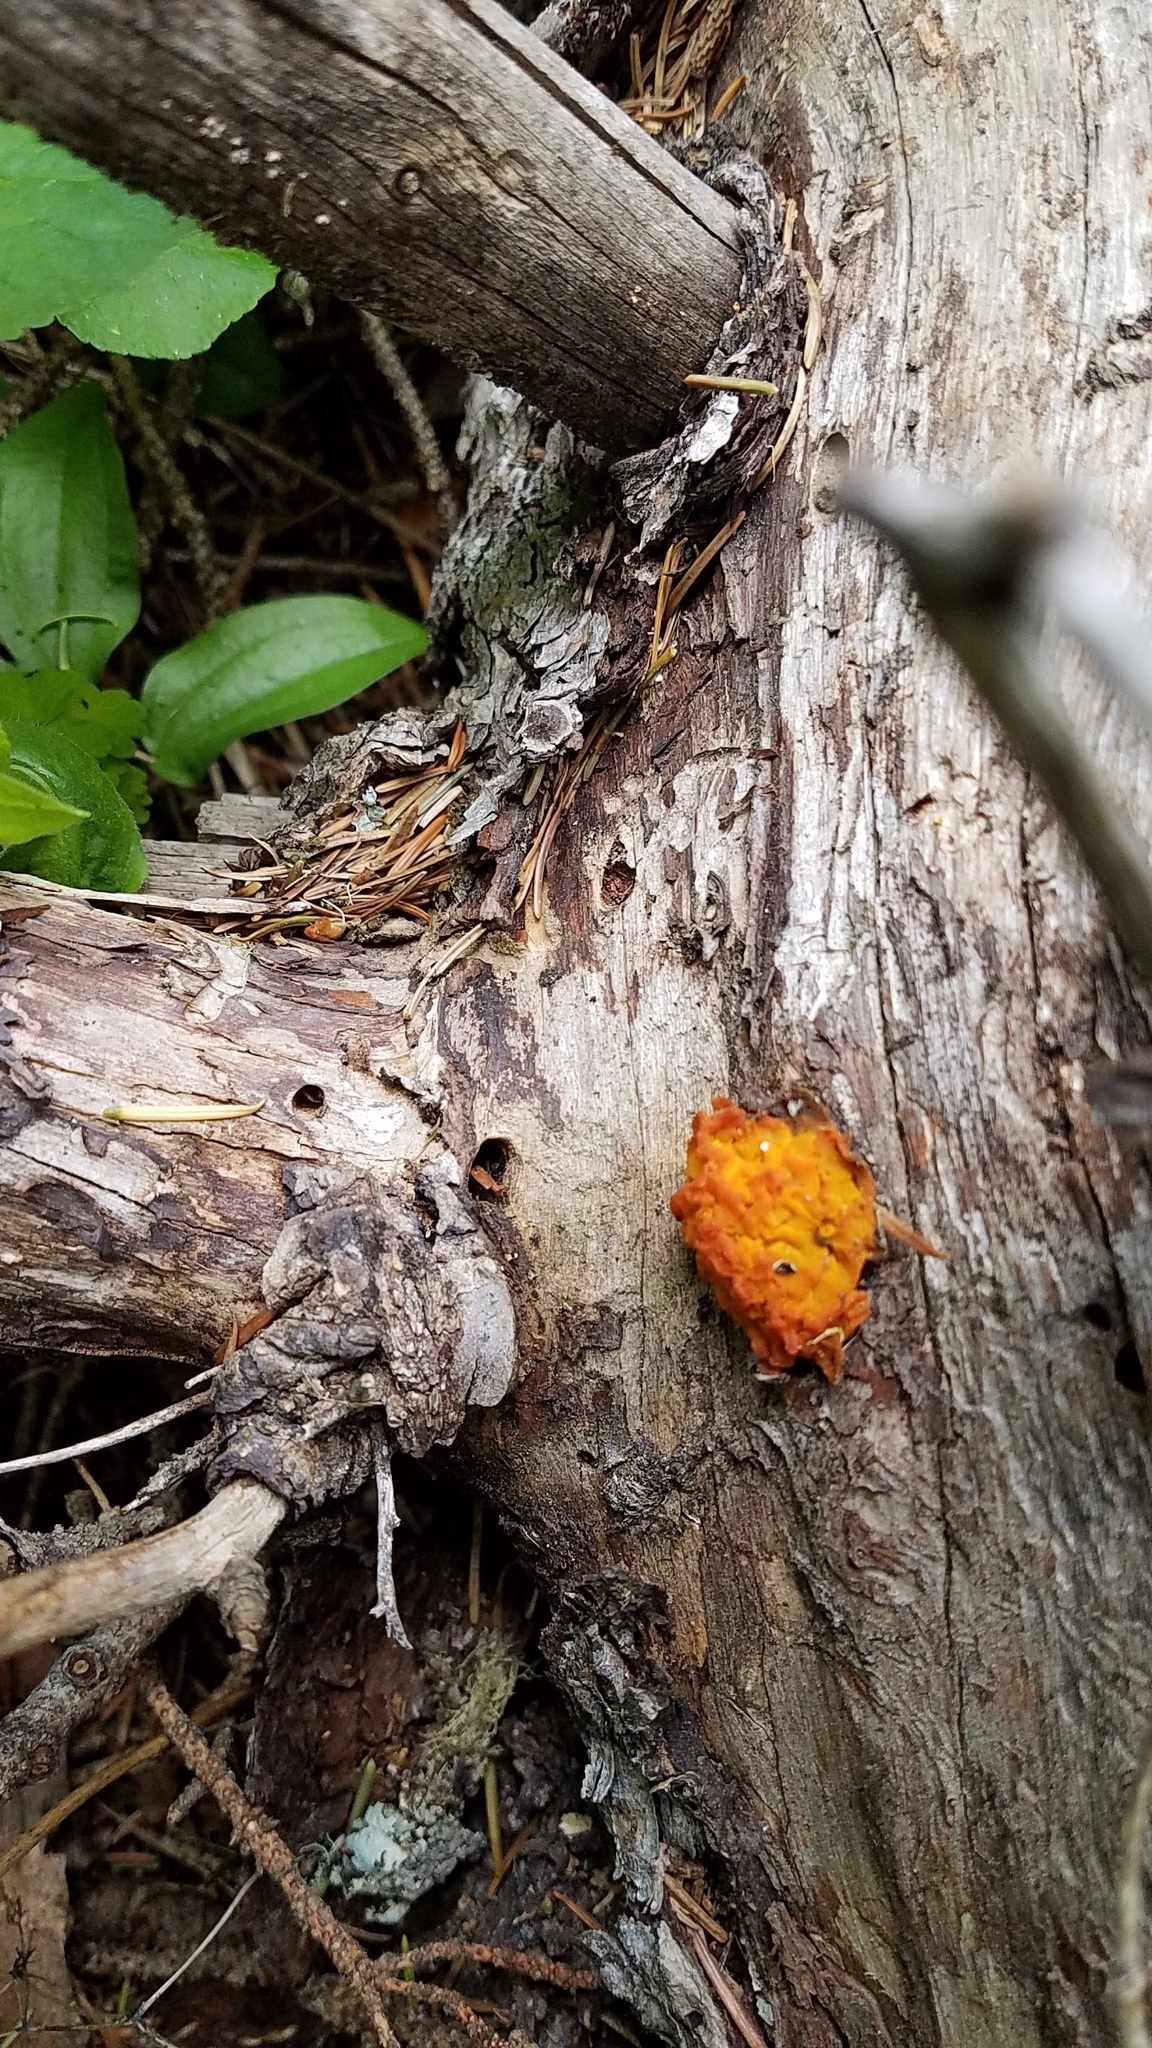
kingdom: Fungi
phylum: Basidiomycota
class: Dacrymycetes
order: Dacrymycetales
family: Dacrymycetaceae
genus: Dacrymyces
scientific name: Dacrymyces chrysospermus
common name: Orange jelly spot
